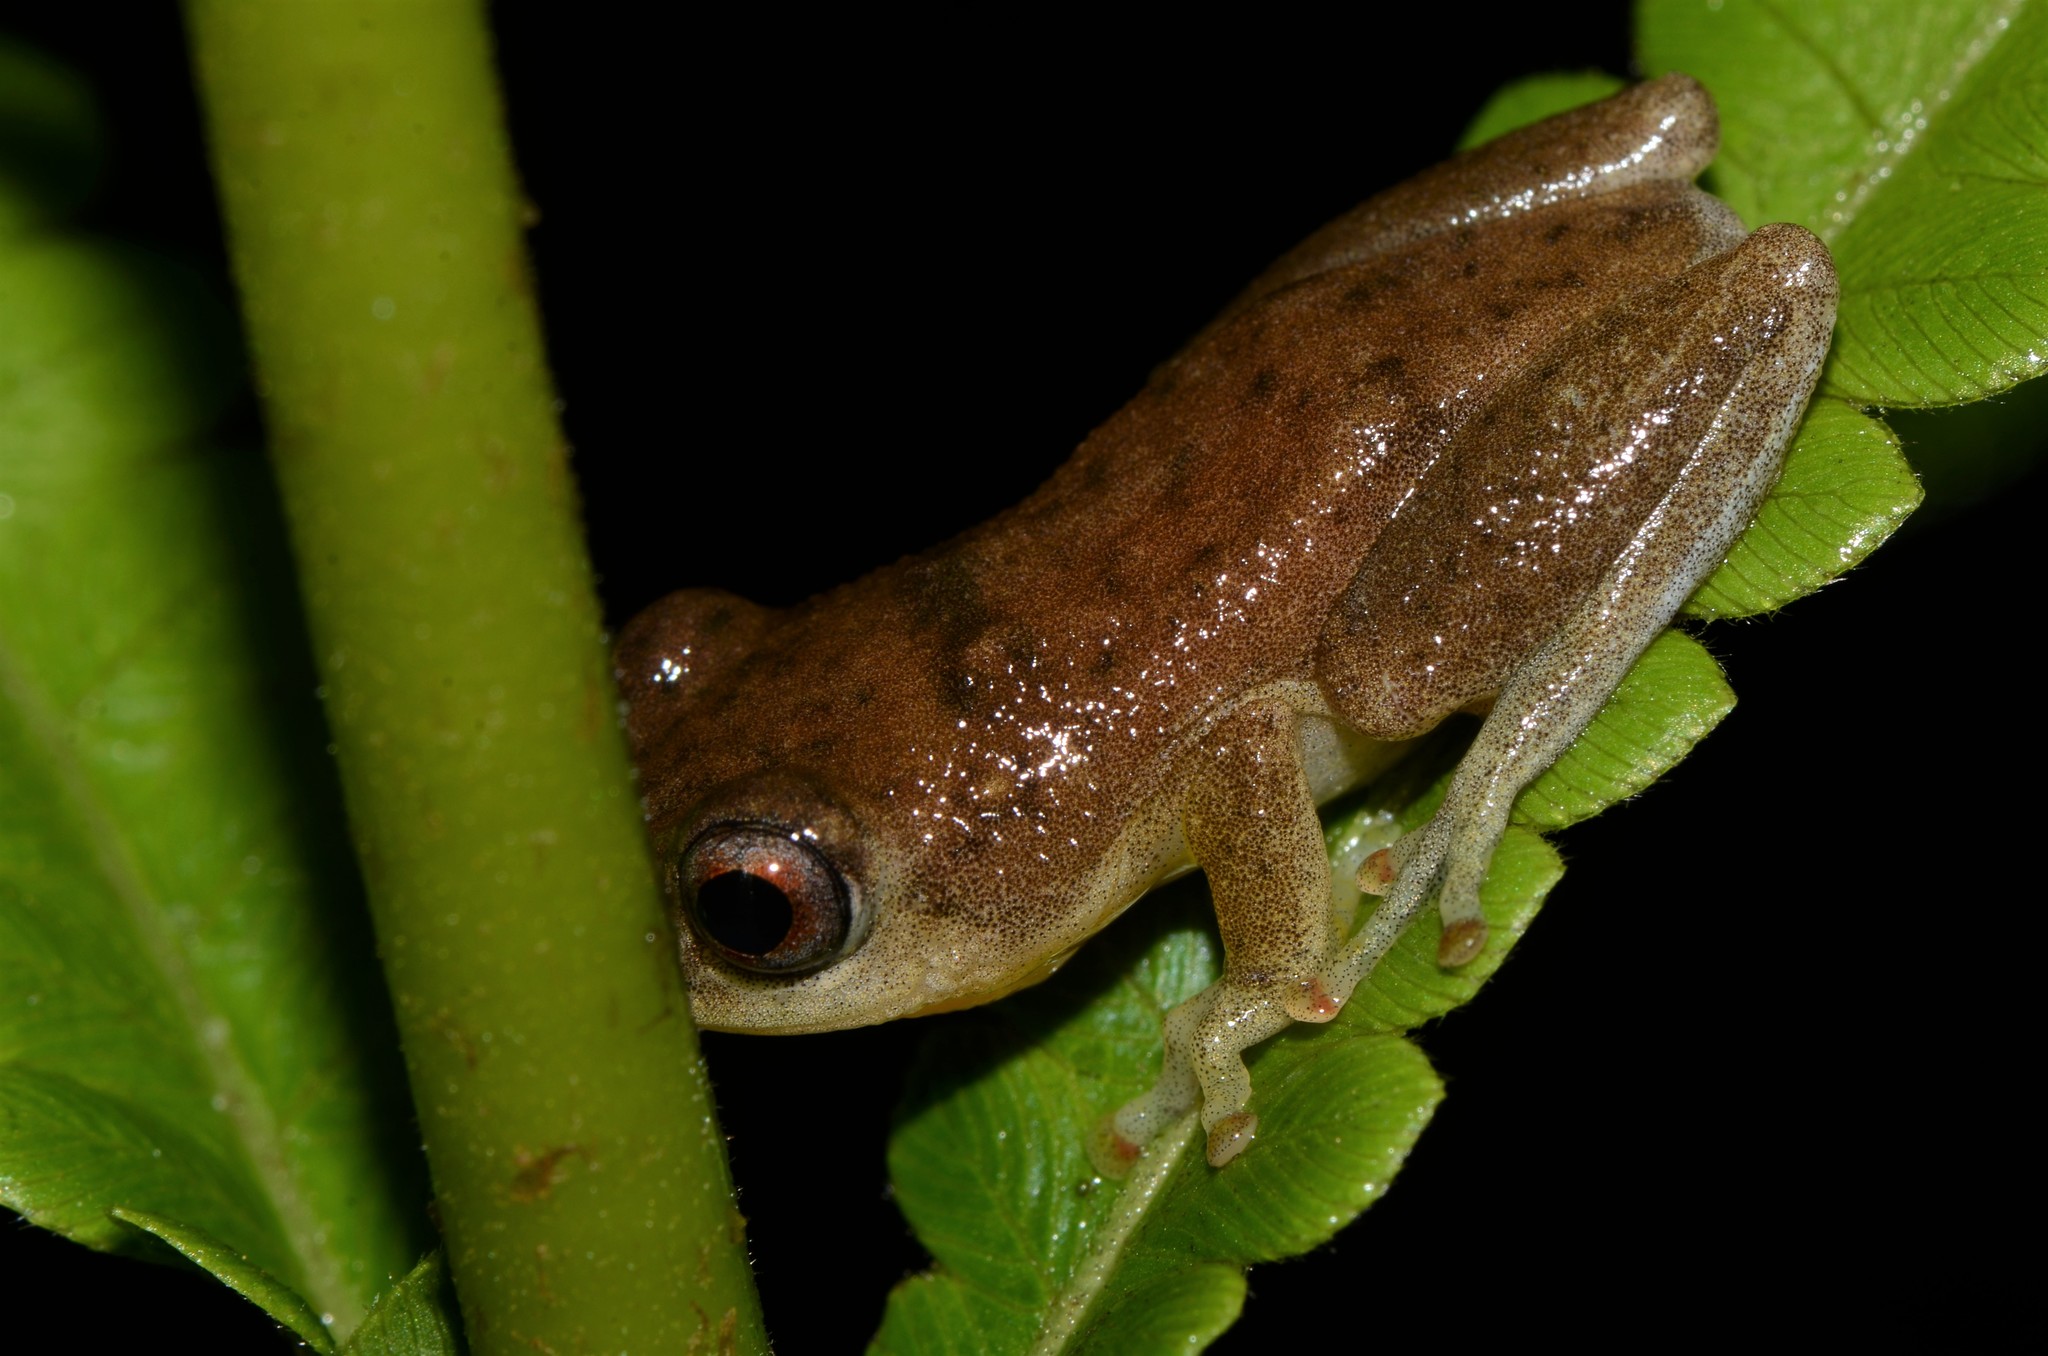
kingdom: Animalia
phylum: Chordata
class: Amphibia
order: Anura
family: Hyperoliidae
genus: Hyperolius
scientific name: Hyperolius stictus
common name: Yellow-spotted reed frog
